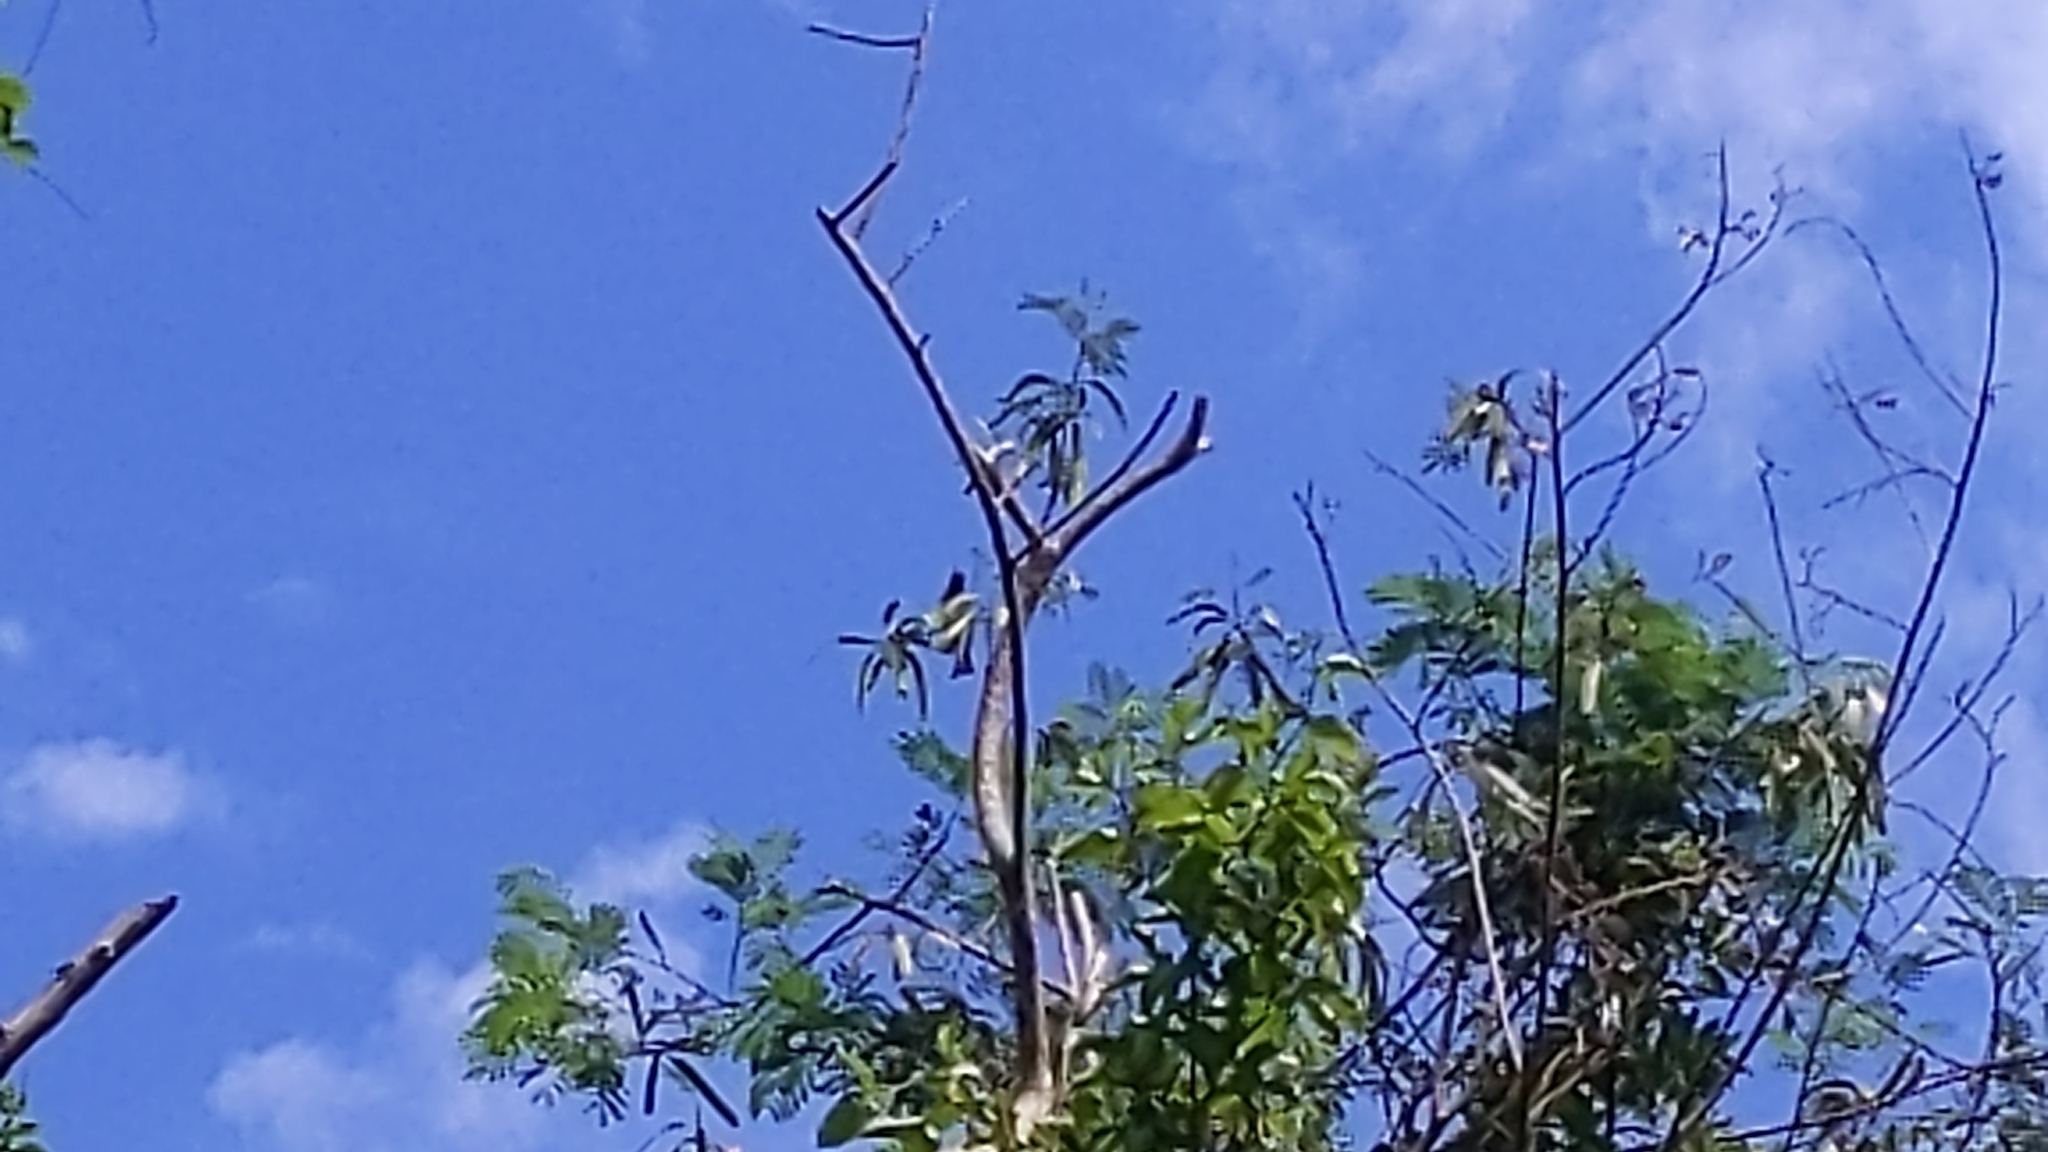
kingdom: Animalia
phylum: Chordata
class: Aves
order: Passeriformes
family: Pycnonotidae
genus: Hypsipetes
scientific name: Hypsipetes leucocephalus
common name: Black bulbul
